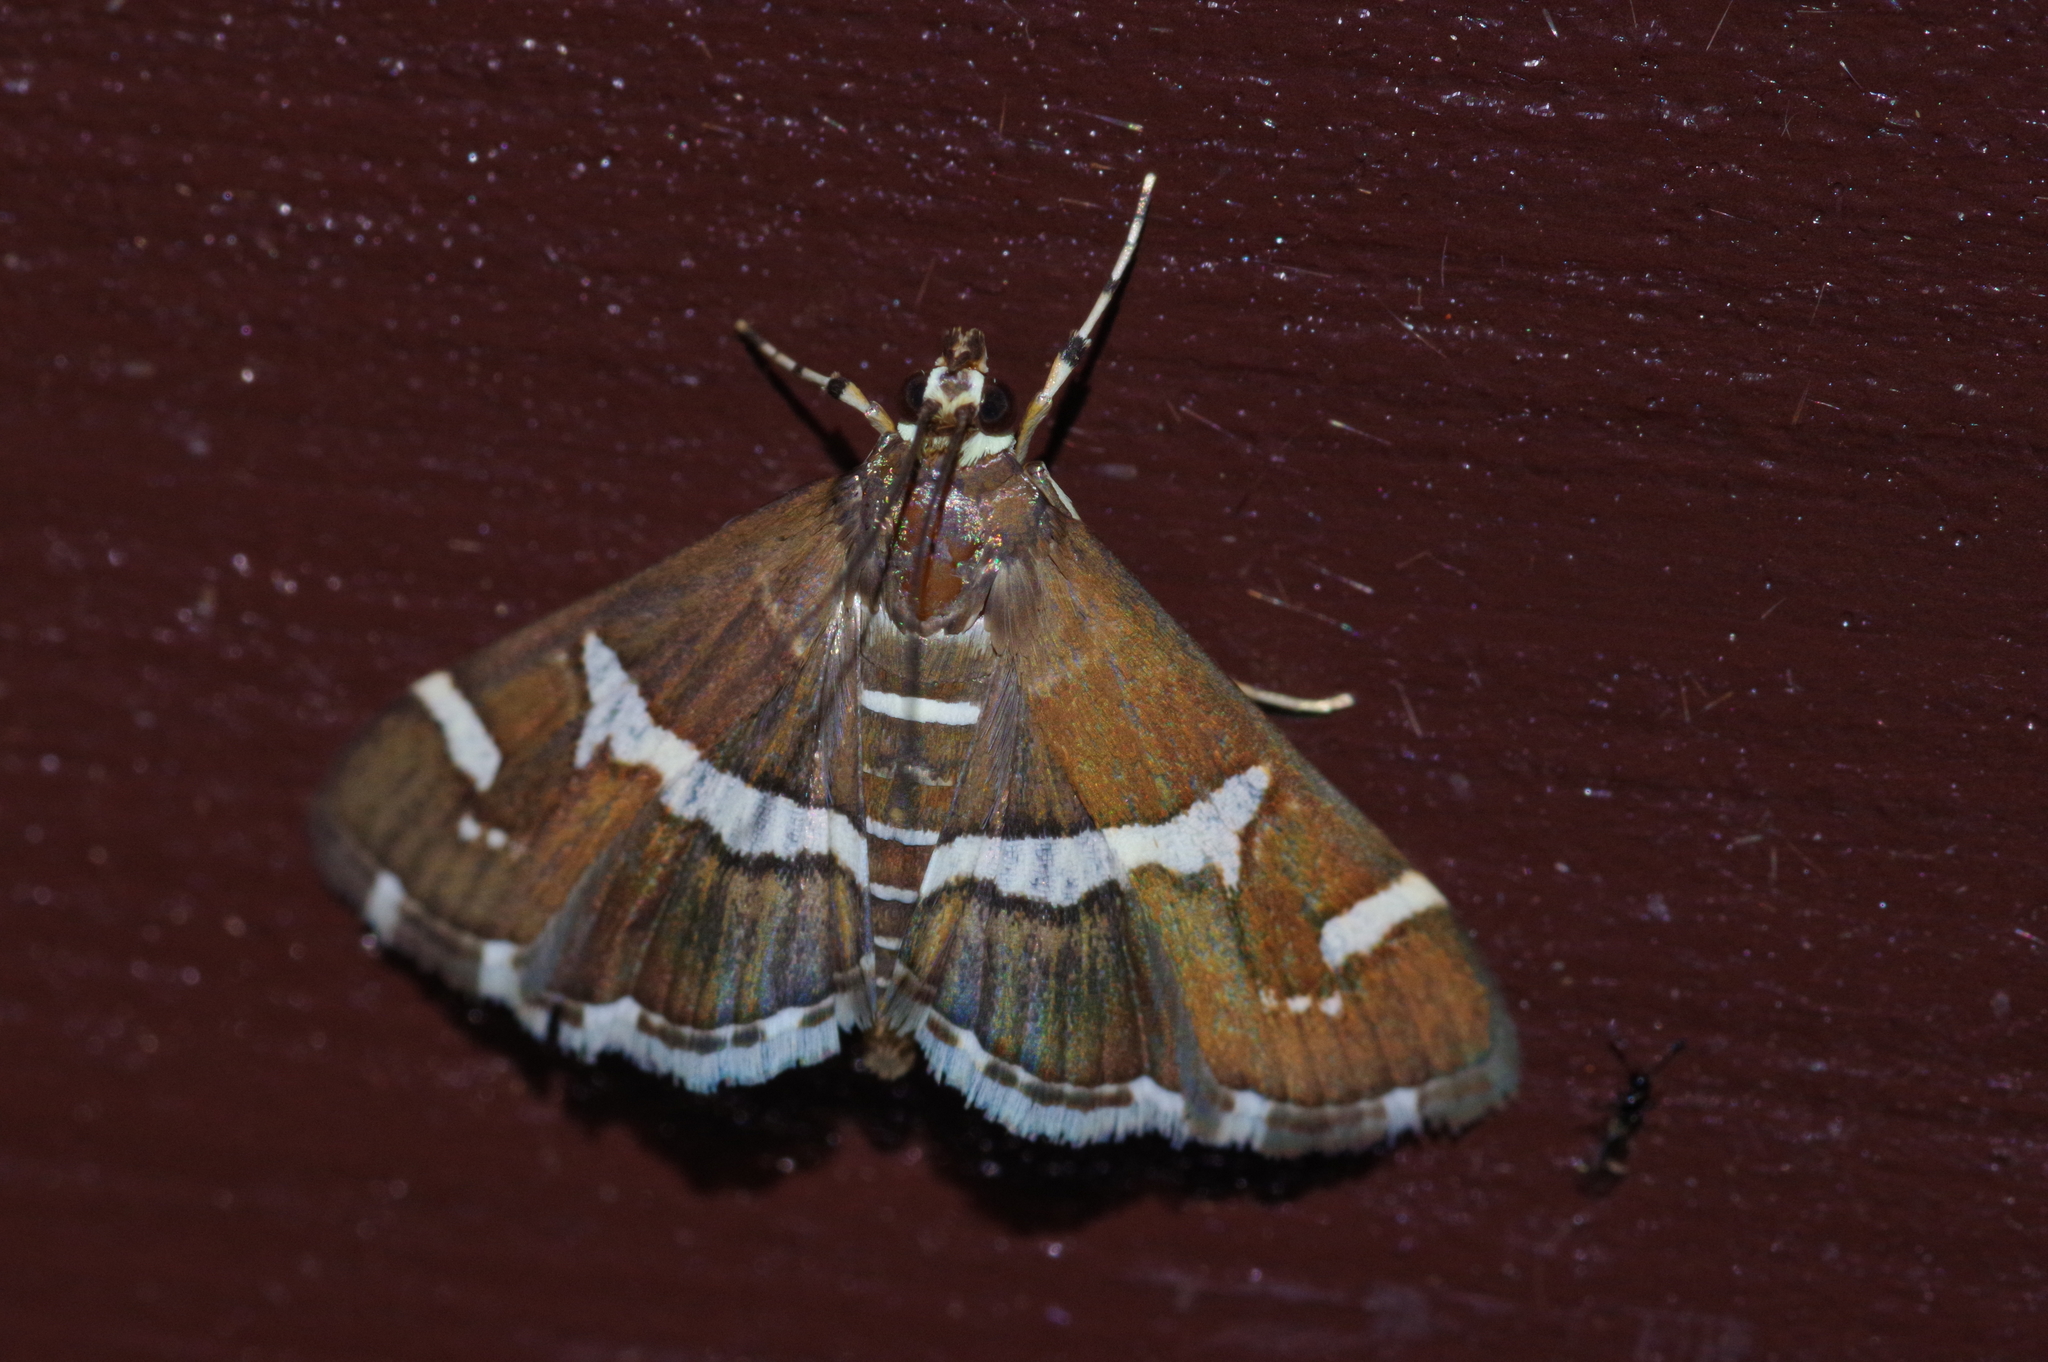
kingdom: Animalia
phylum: Arthropoda
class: Insecta
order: Lepidoptera
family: Crambidae
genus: Spoladea
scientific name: Spoladea recurvalis
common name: Beet webworm moth
